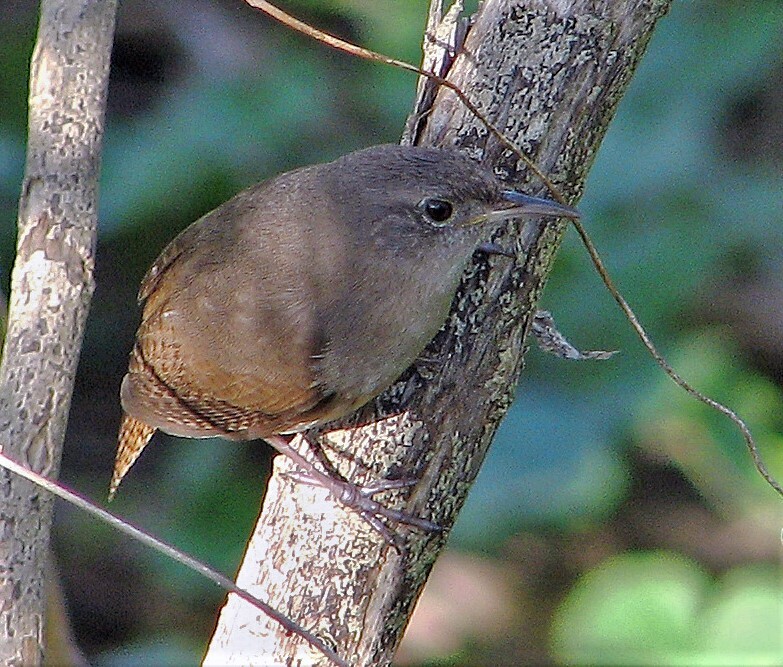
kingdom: Animalia
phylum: Chordata
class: Aves
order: Passeriformes
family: Troglodytidae
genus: Troglodytes
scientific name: Troglodytes aedon
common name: House wren
